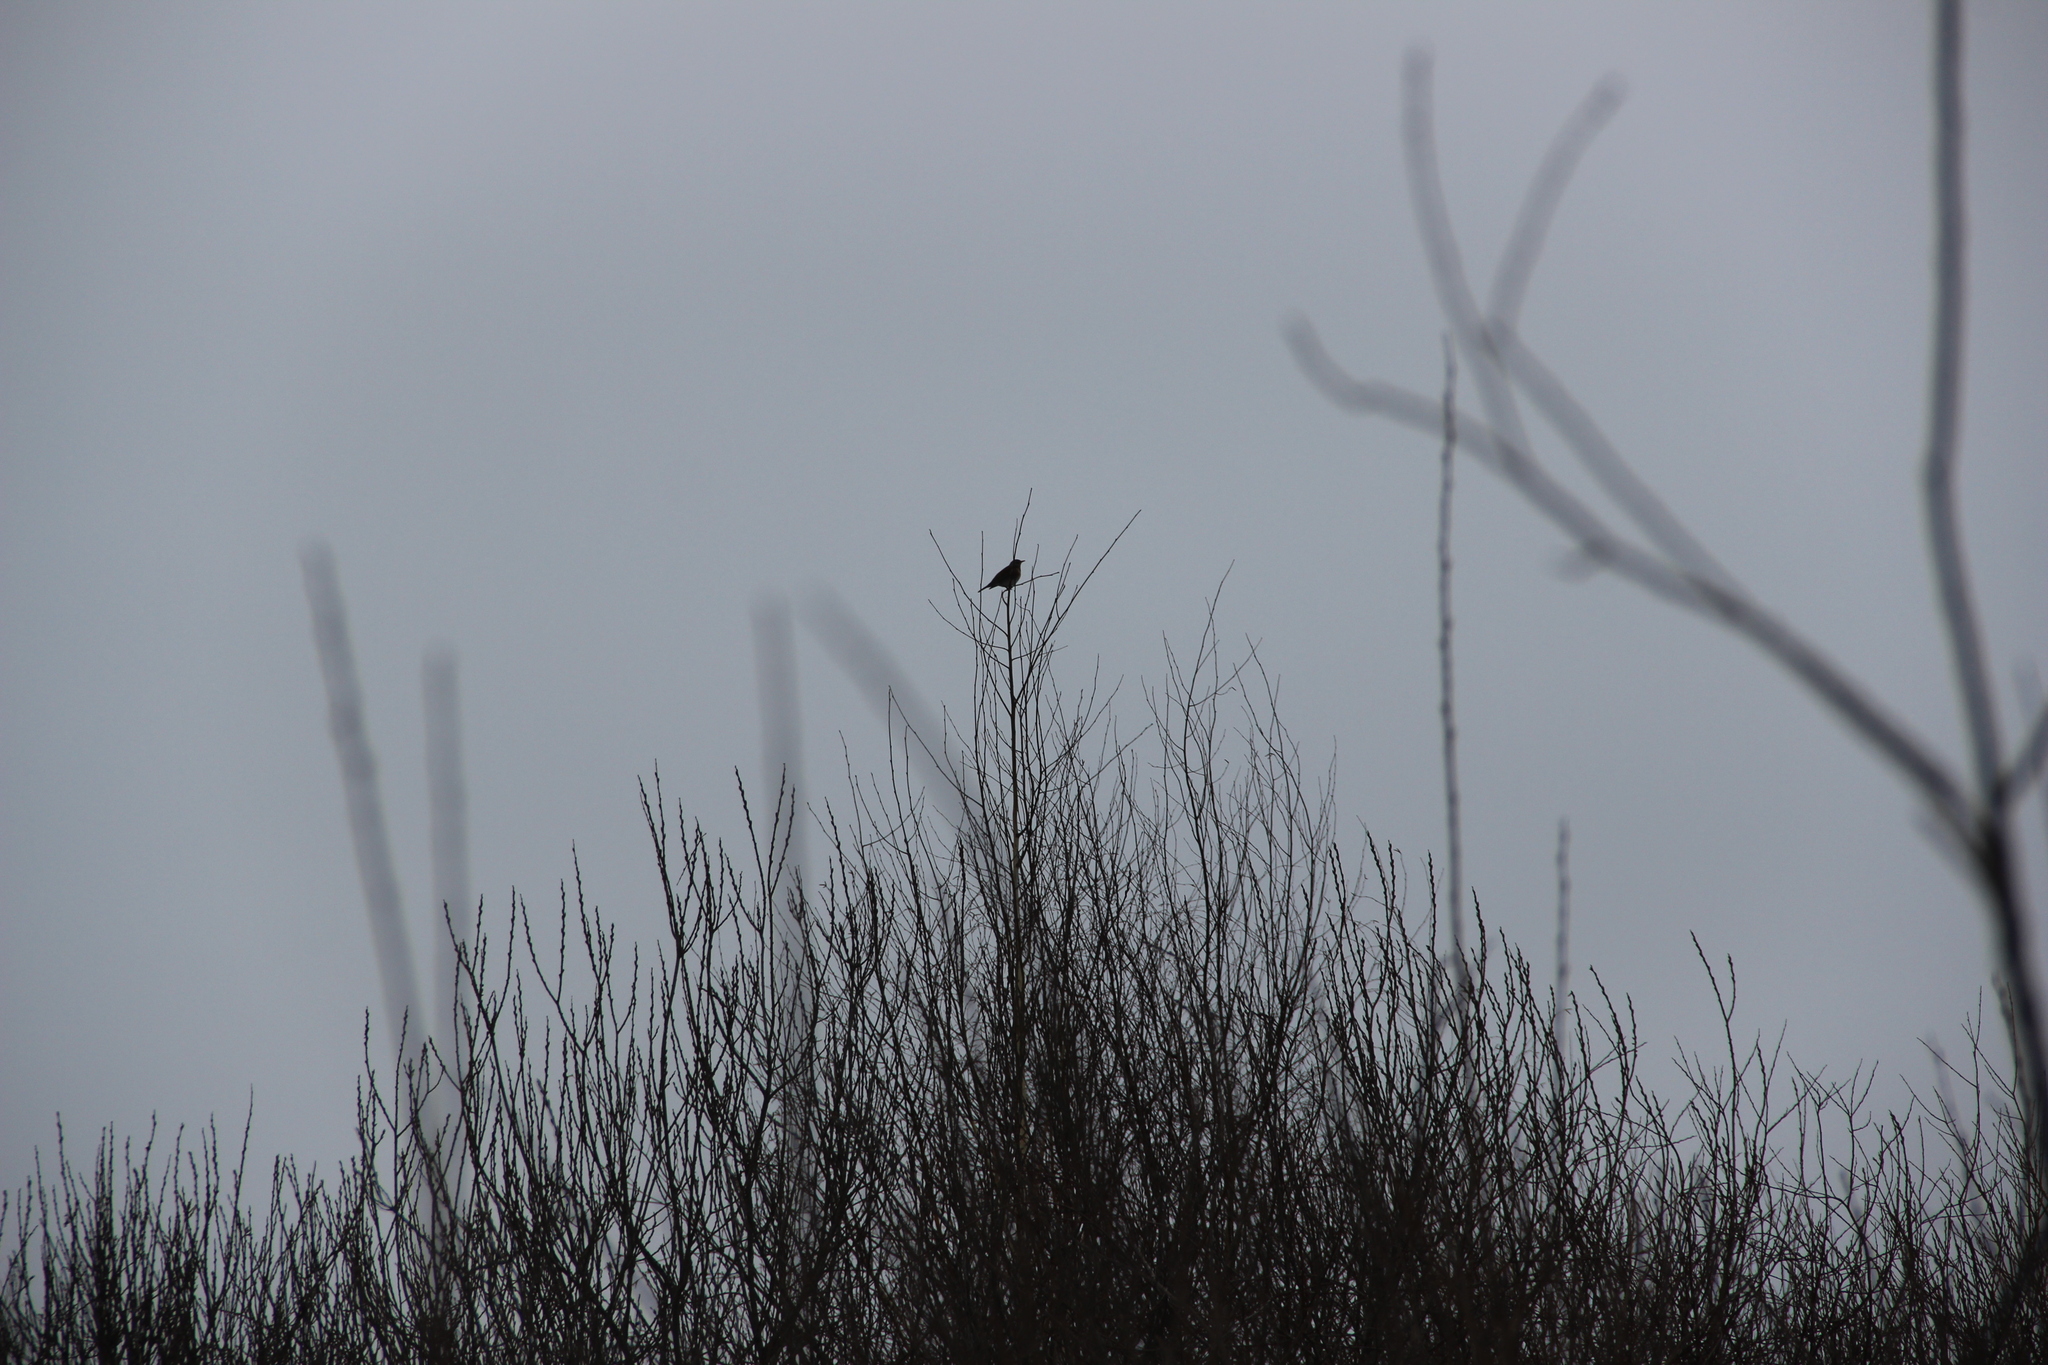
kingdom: Animalia
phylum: Chordata
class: Aves
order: Passeriformes
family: Turdidae
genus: Turdus
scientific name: Turdus pilaris
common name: Fieldfare
